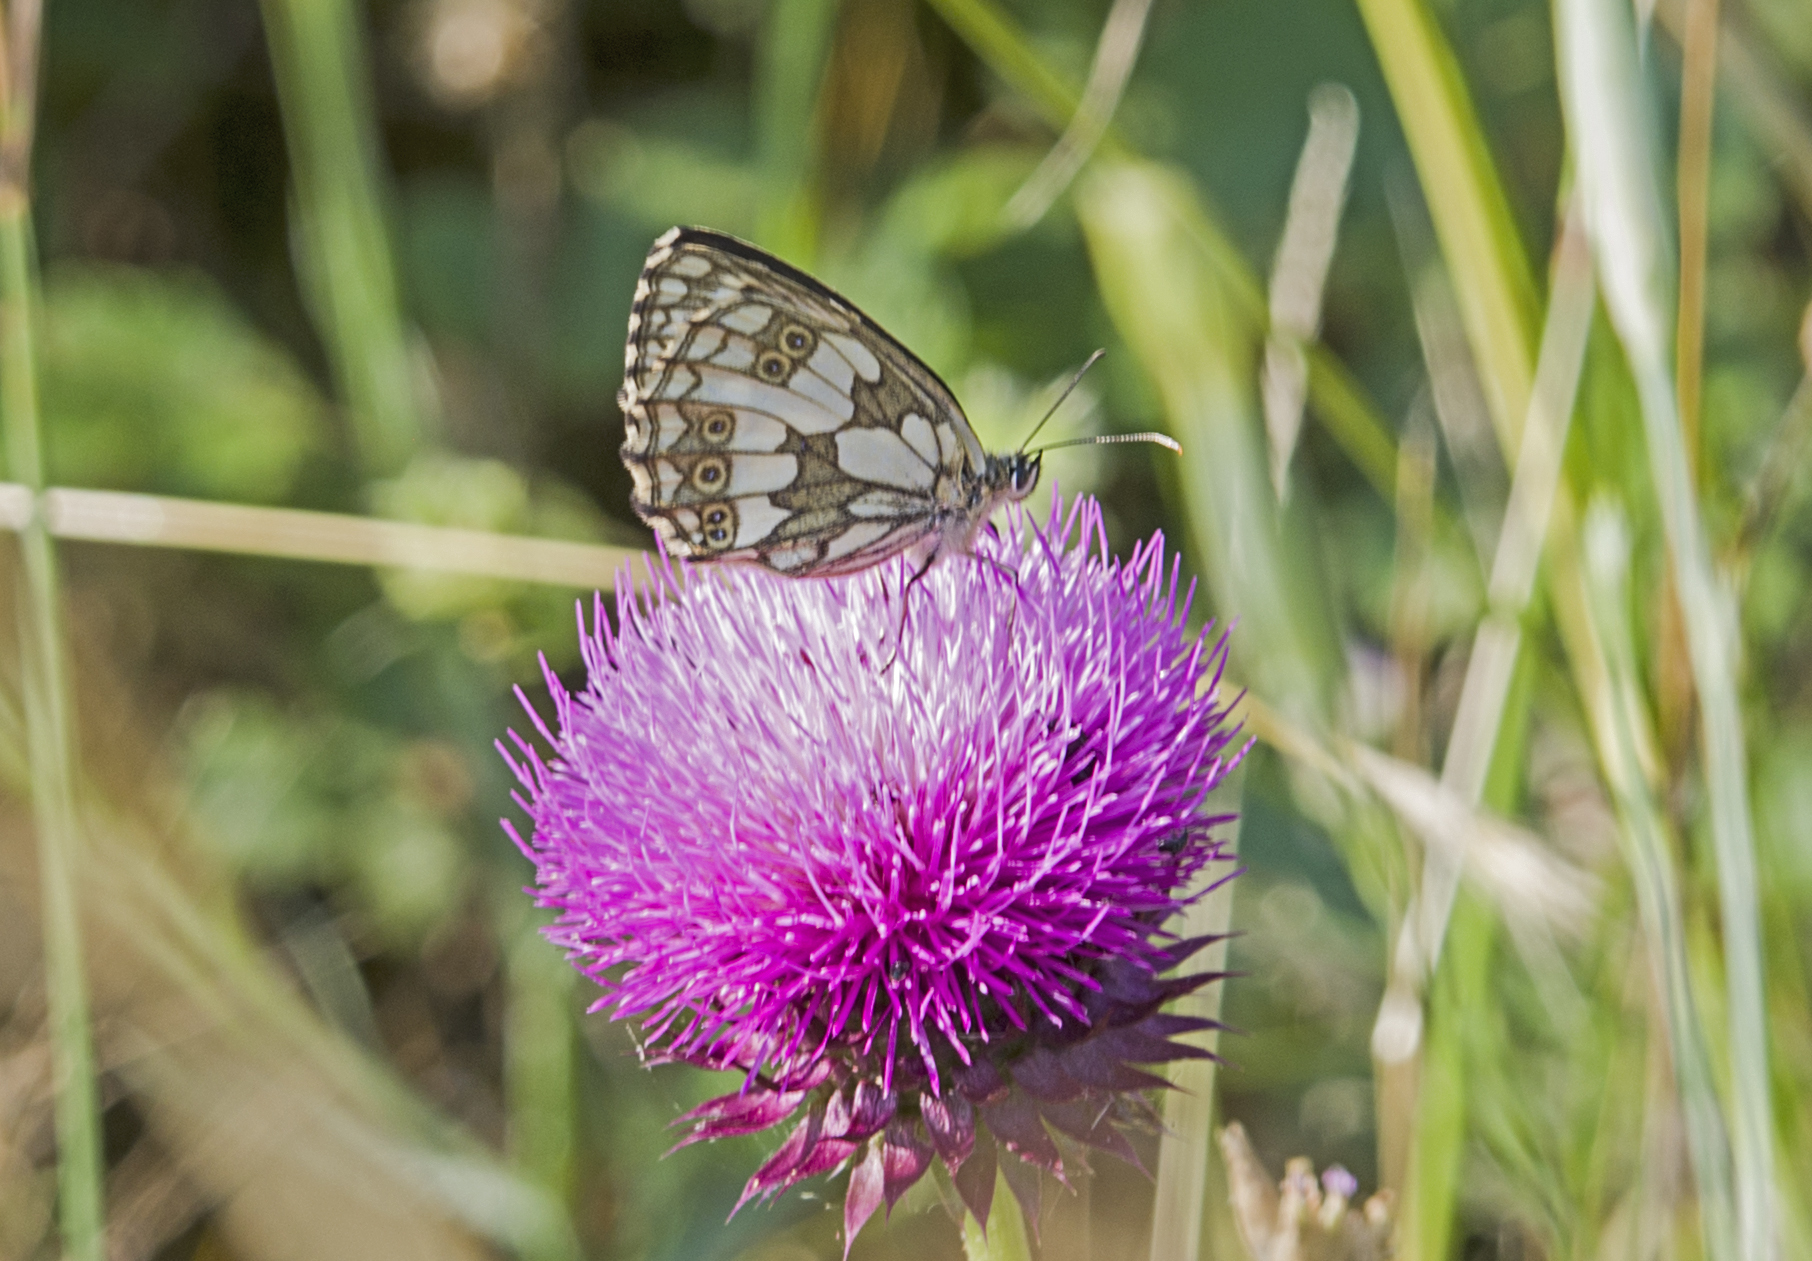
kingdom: Animalia
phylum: Arthropoda
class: Insecta
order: Lepidoptera
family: Nymphalidae
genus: Melanargia
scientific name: Melanargia galathea
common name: Marbled white
